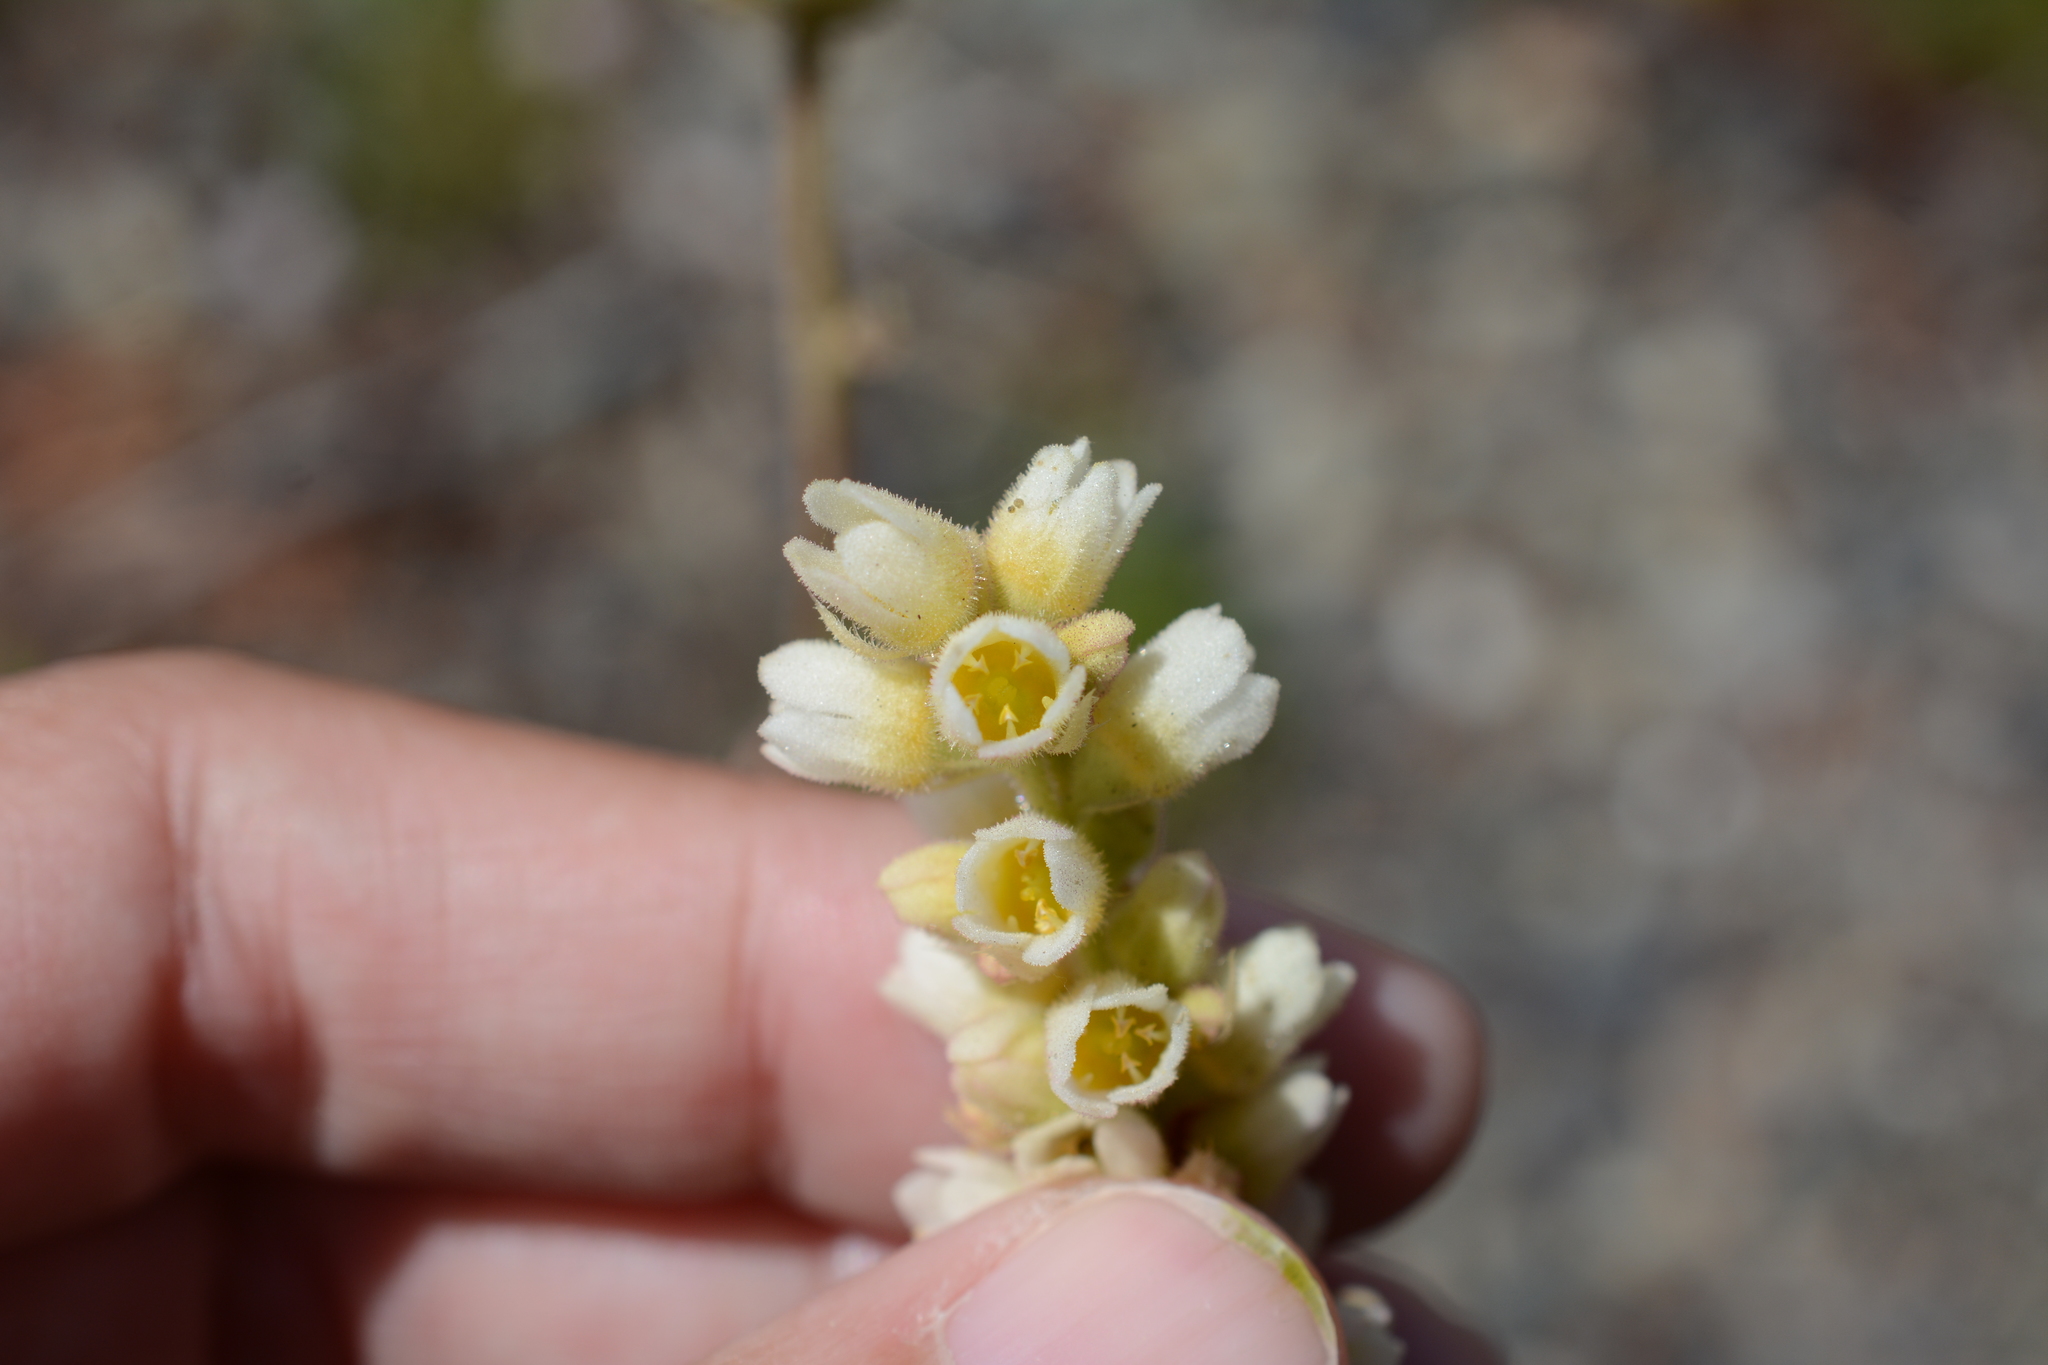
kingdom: Plantae
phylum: Tracheophyta
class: Magnoliopsida
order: Saxifragales
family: Saxifragaceae
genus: Heuchera
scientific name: Heuchera cylindrica
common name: Mat alumroot
